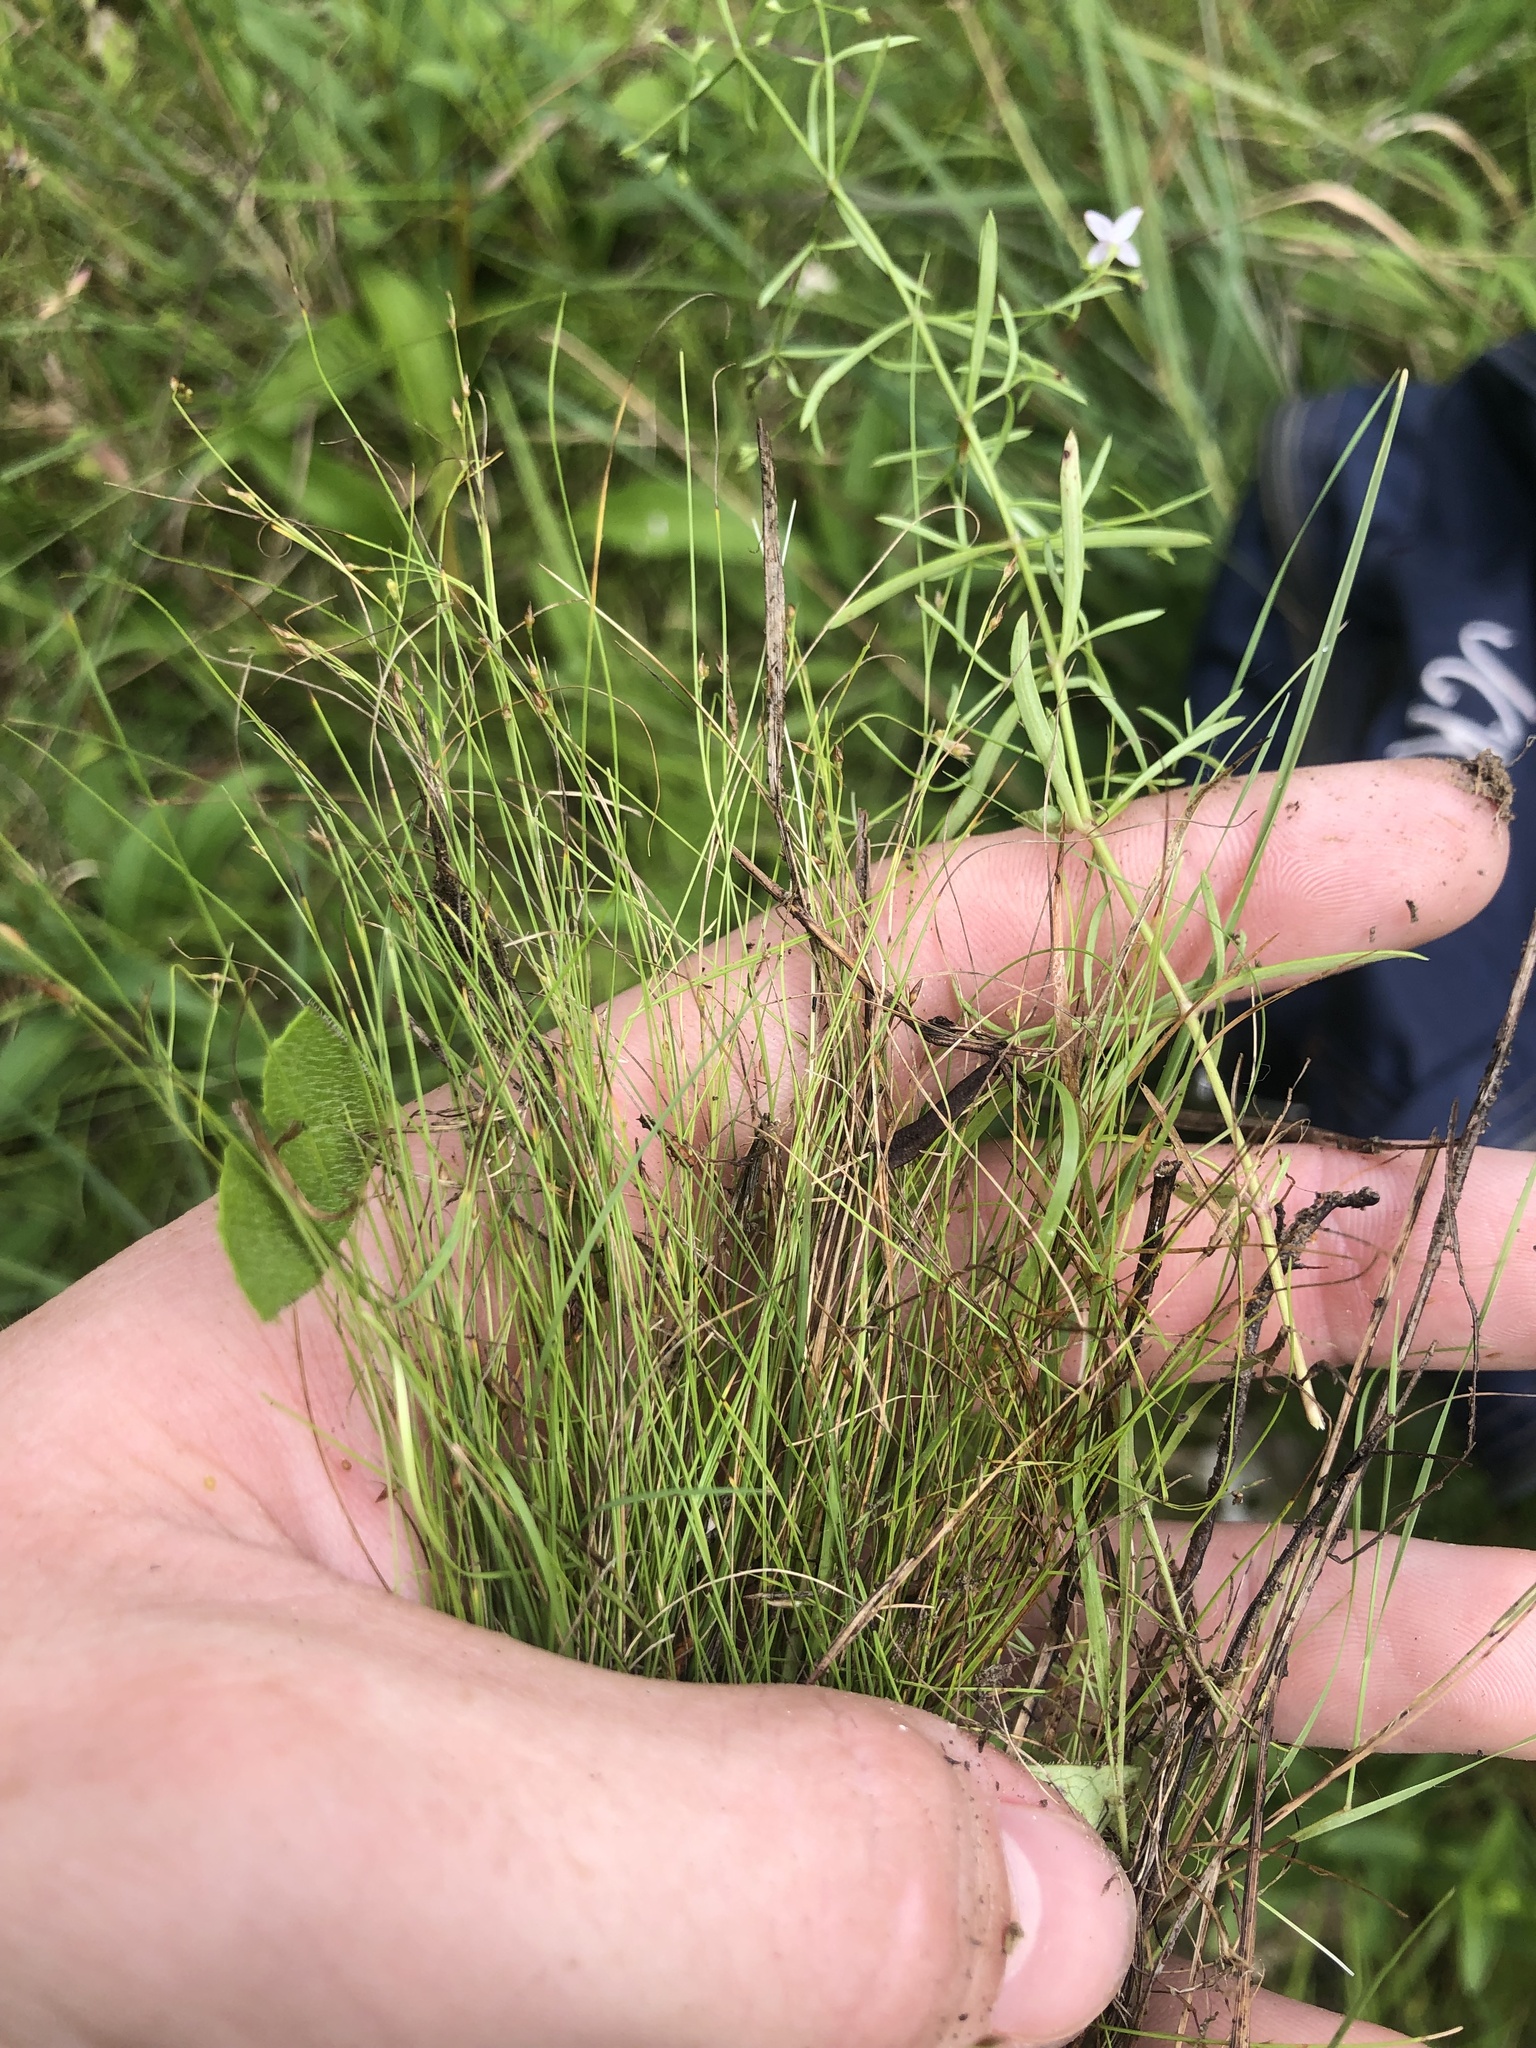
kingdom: Plantae
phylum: Tracheophyta
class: Liliopsida
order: Poales
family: Cyperaceae
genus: Rhynchospora
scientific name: Rhynchospora thornei
